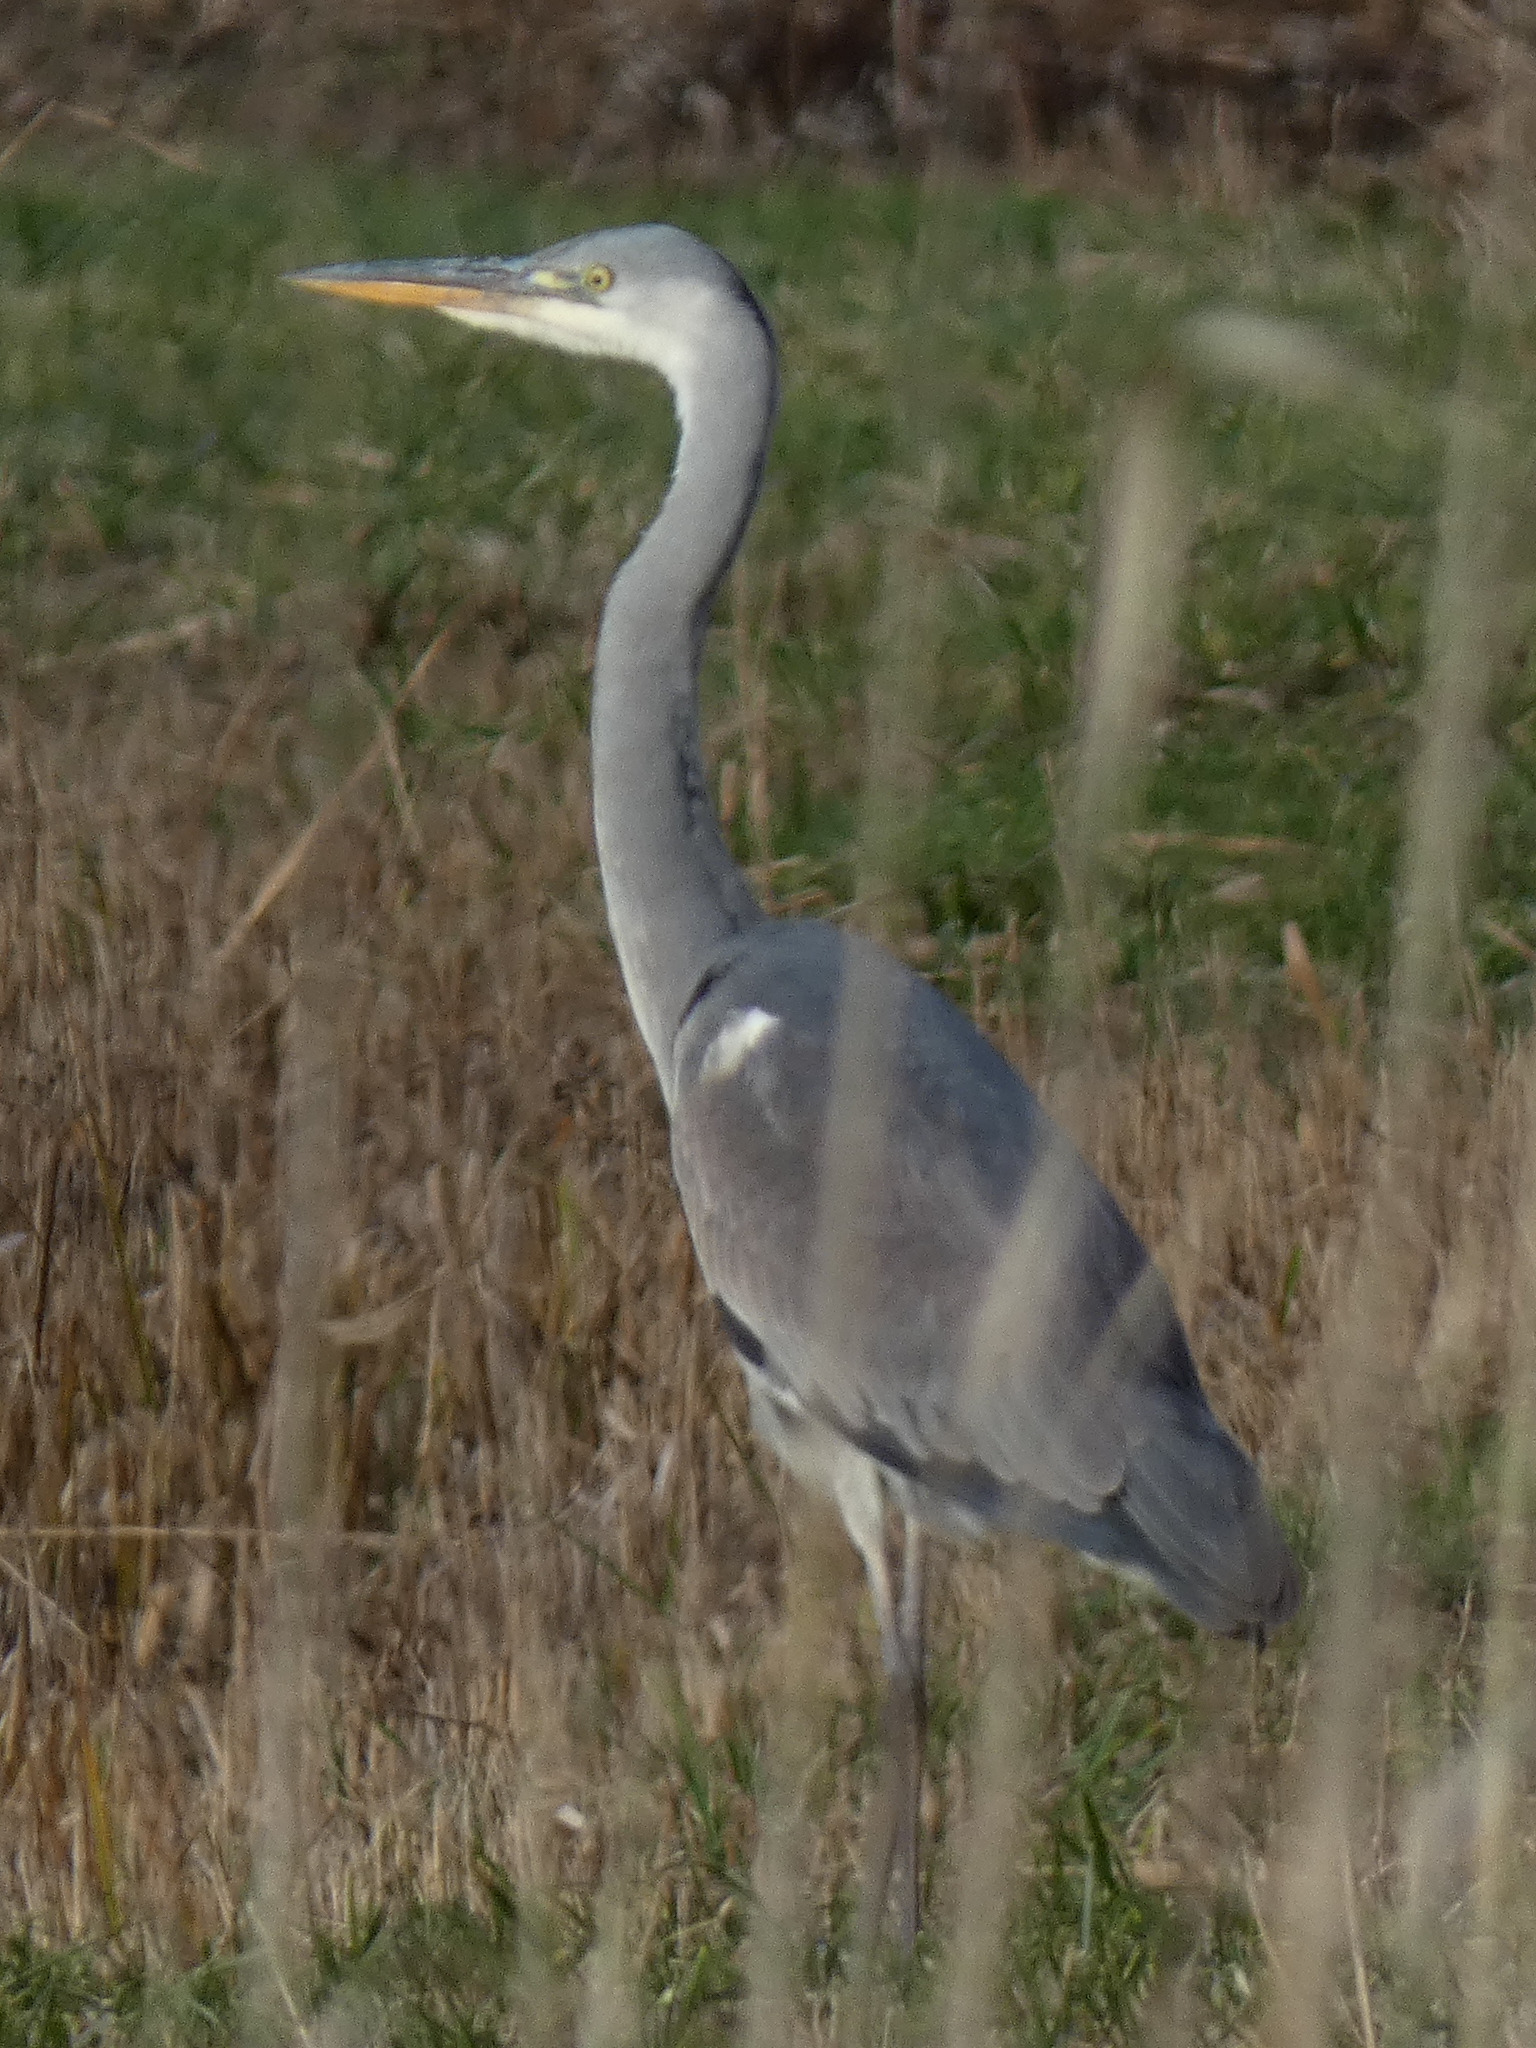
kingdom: Animalia
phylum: Chordata
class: Aves
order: Pelecaniformes
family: Ardeidae
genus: Ardea
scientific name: Ardea cinerea
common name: Grey heron
